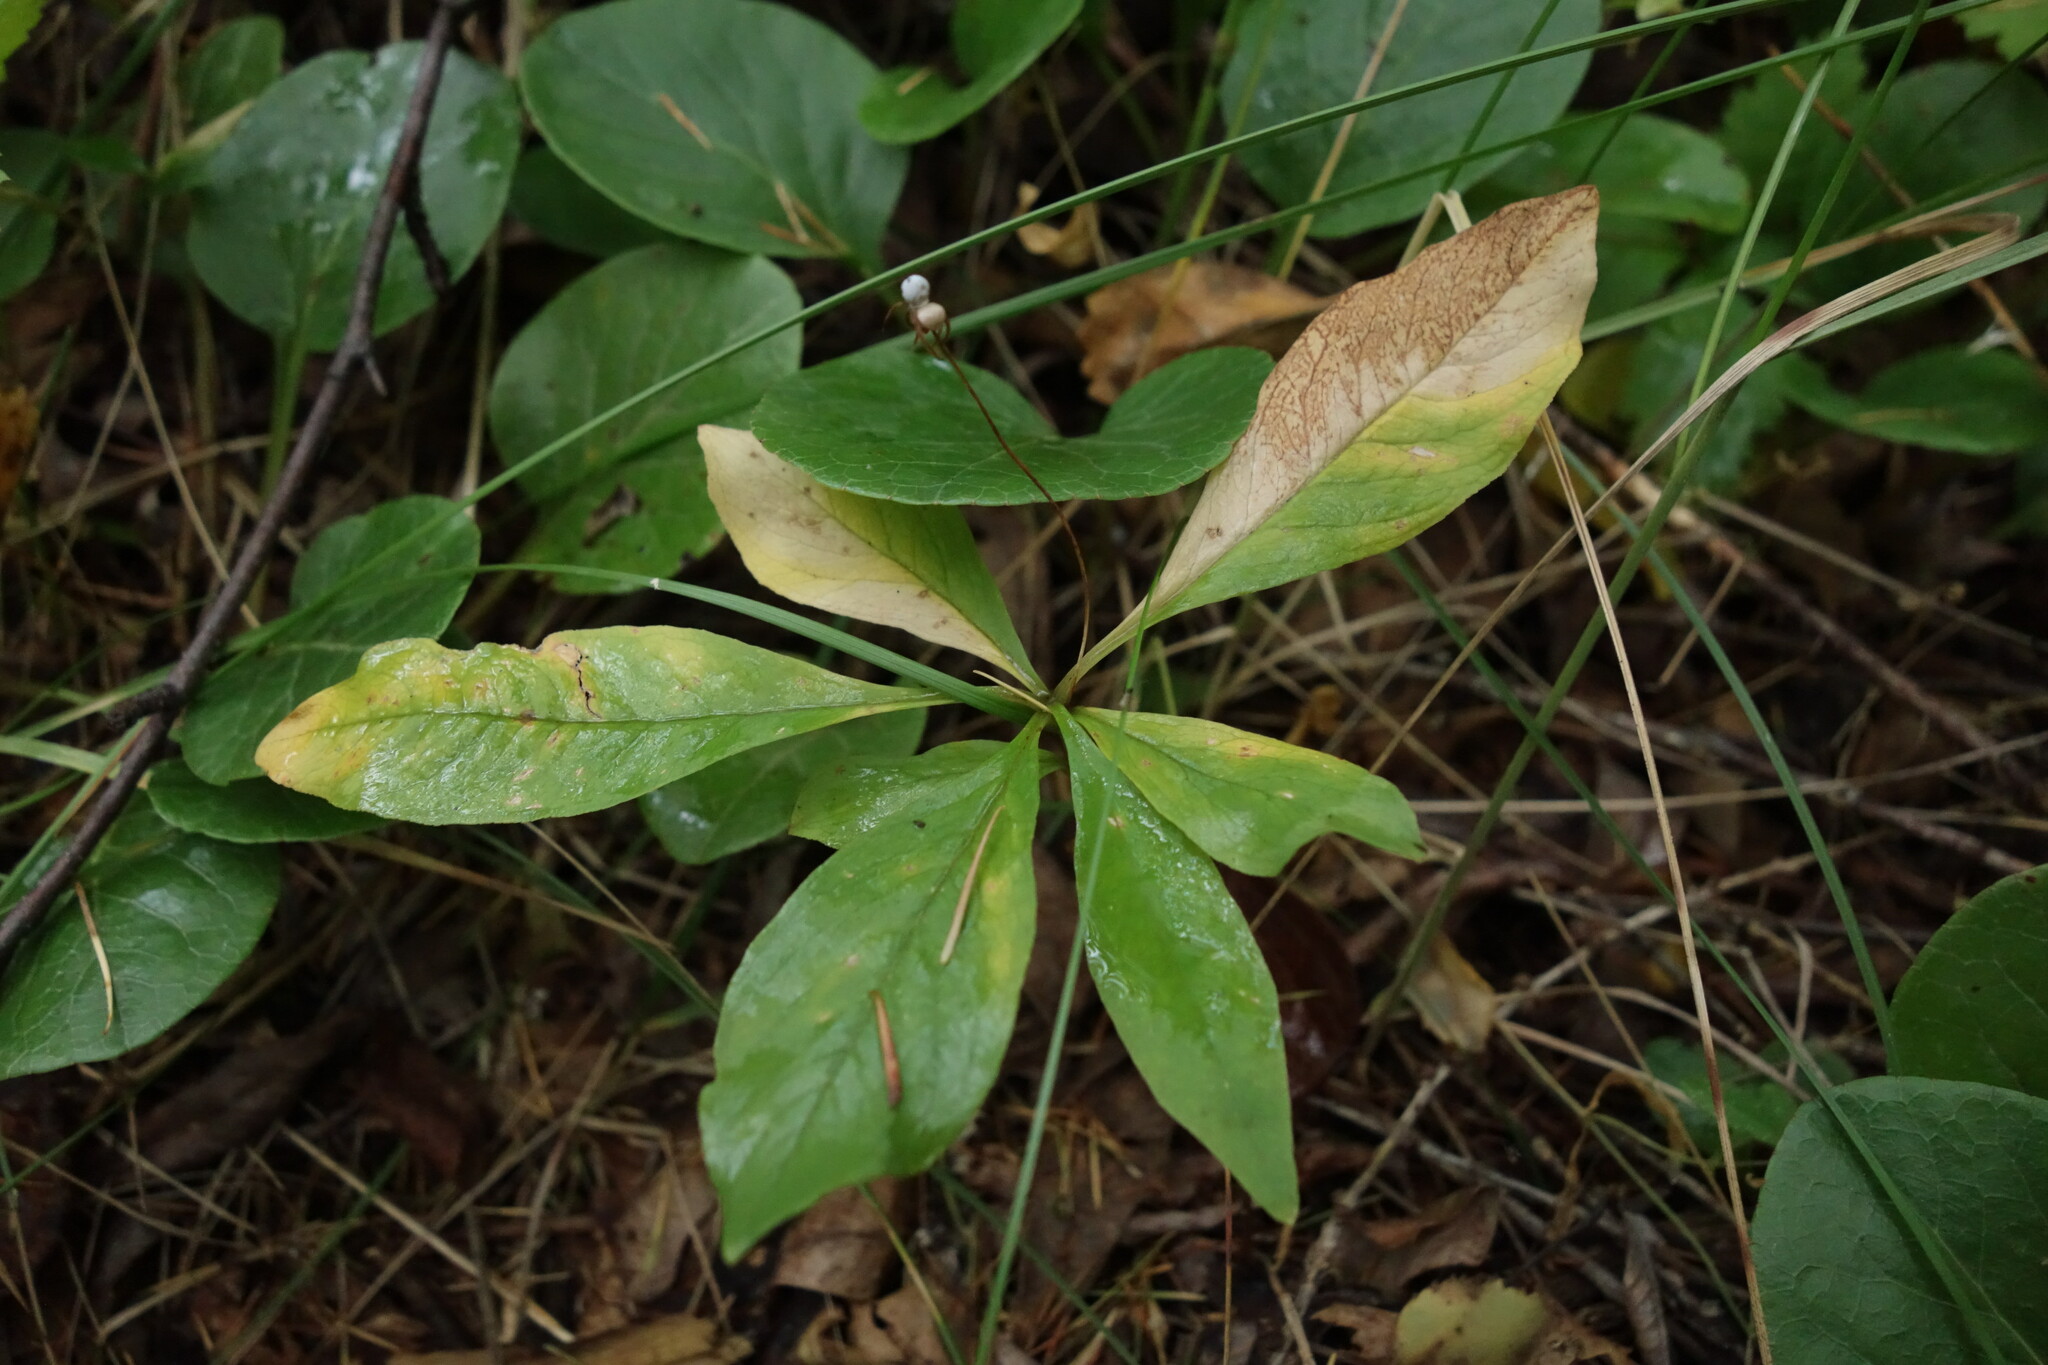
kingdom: Plantae
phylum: Tracheophyta
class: Magnoliopsida
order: Ericales
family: Primulaceae
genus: Lysimachia
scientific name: Lysimachia europaea
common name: Arctic starflower
